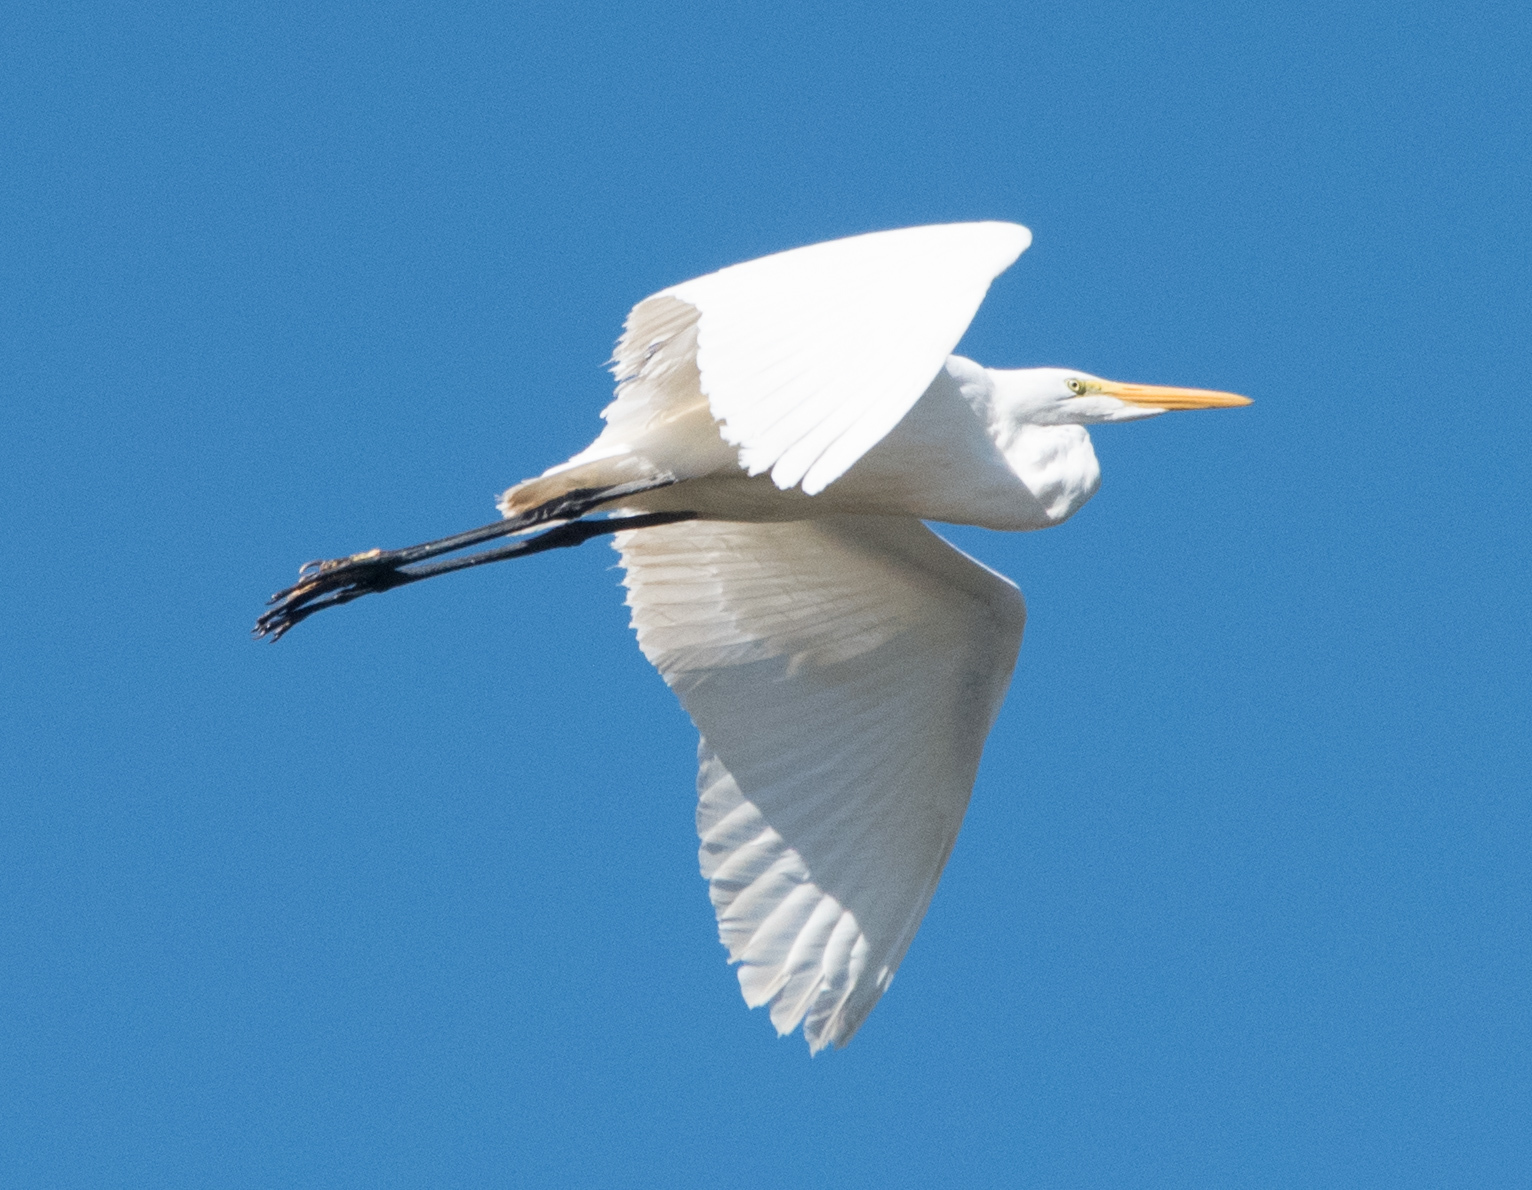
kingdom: Animalia
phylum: Chordata
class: Aves
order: Pelecaniformes
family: Ardeidae
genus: Ardea
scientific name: Ardea alba
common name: Great egret
